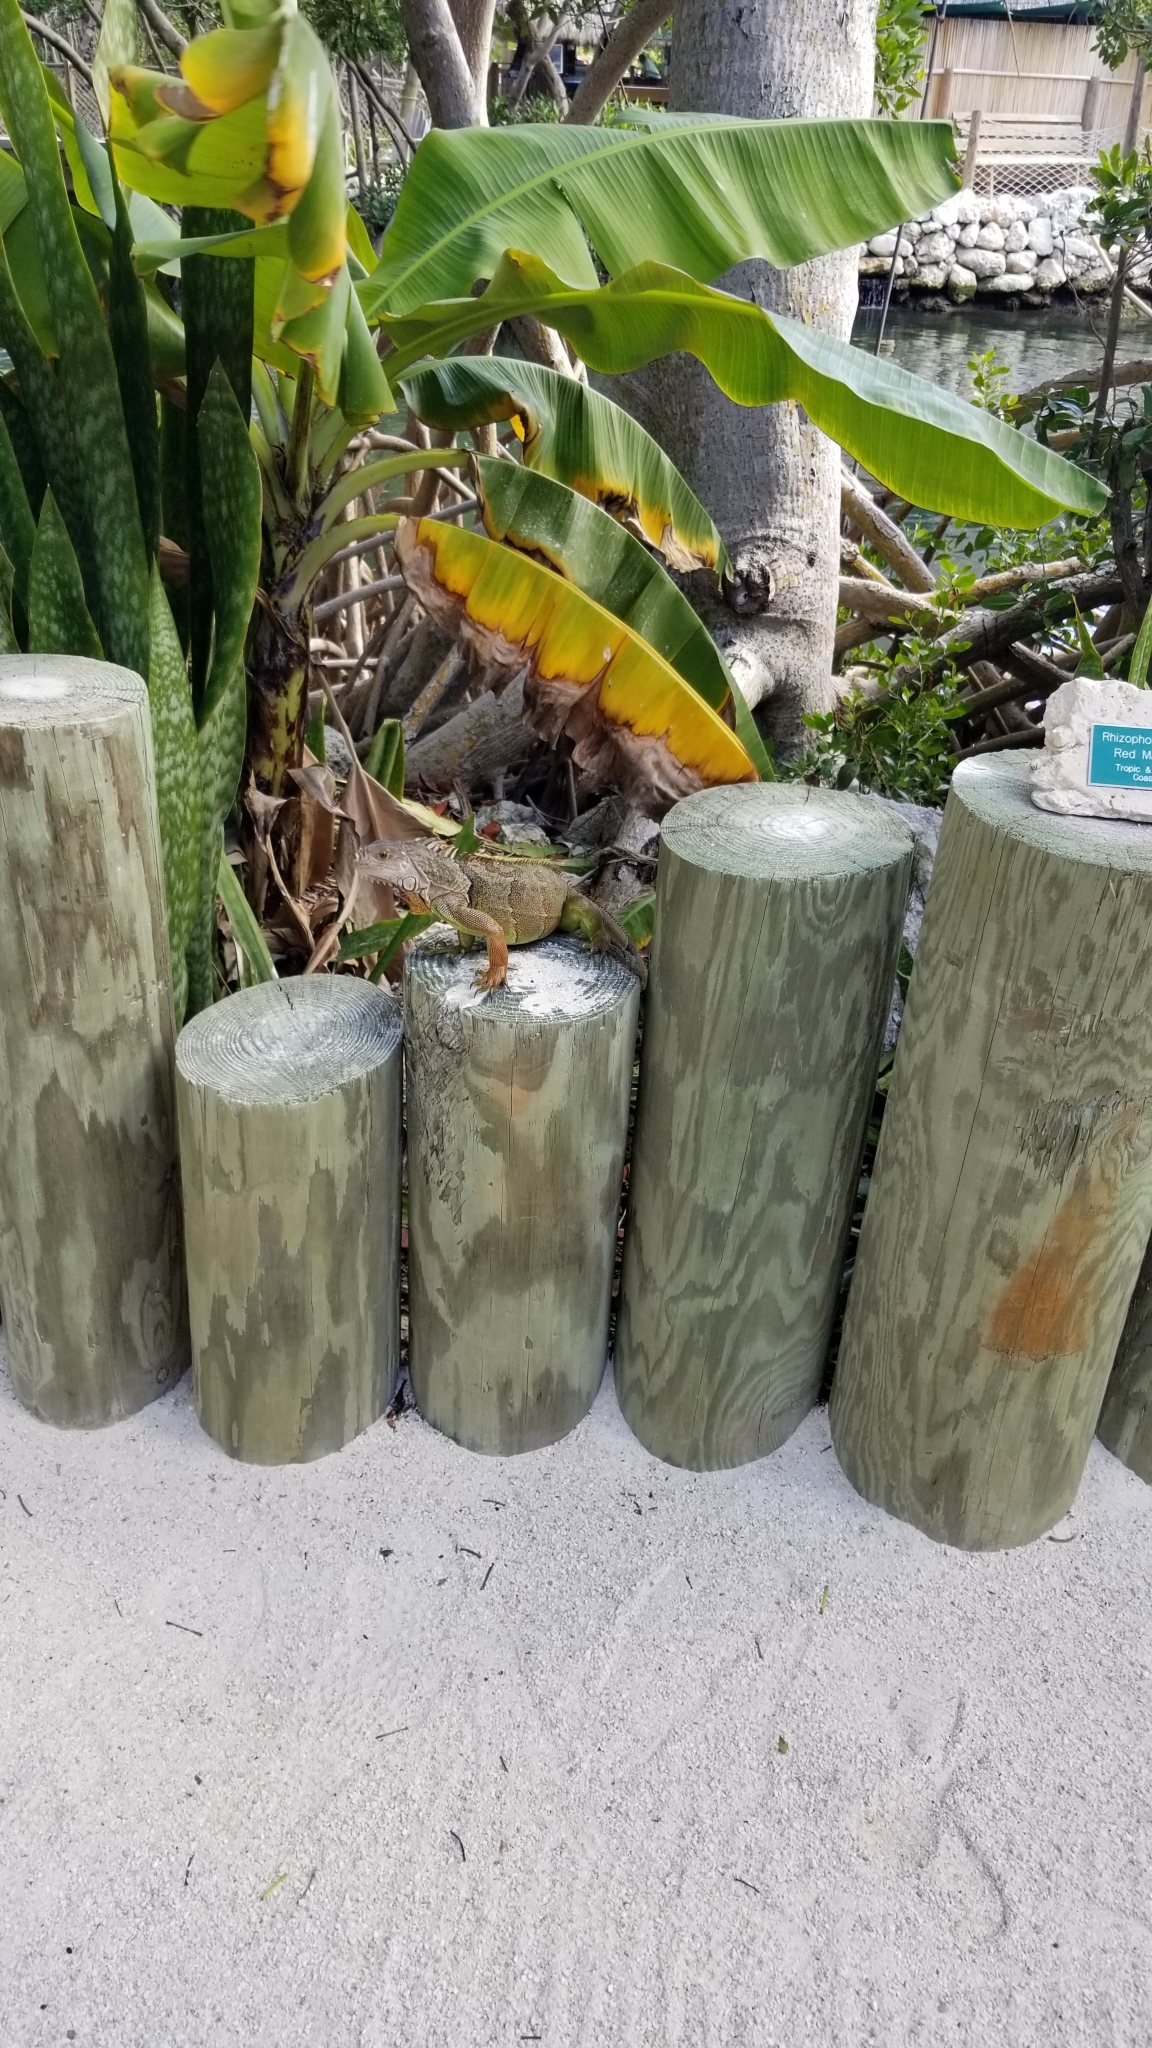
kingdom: Animalia
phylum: Chordata
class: Squamata
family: Iguanidae
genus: Iguana
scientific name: Iguana iguana
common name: Green iguana
